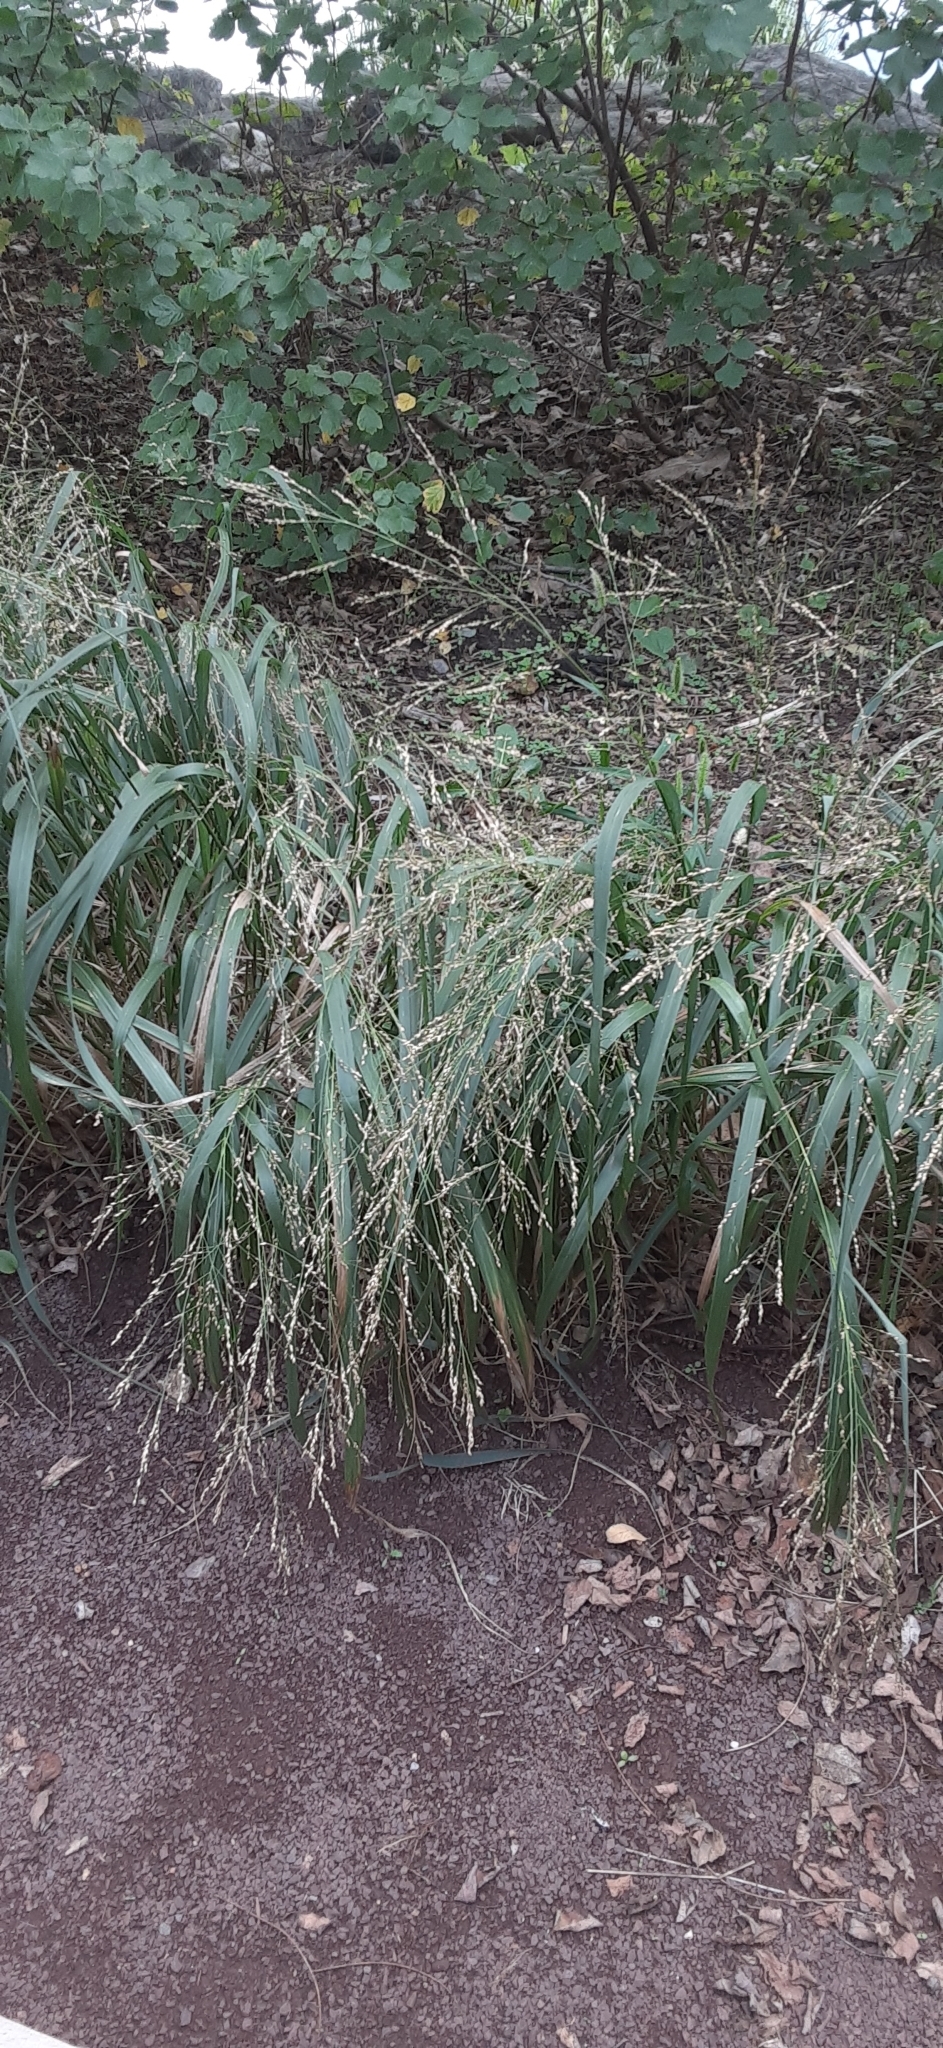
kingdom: Plantae
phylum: Tracheophyta
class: Liliopsida
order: Poales
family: Poaceae
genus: Panicum
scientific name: Panicum virgatum
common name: Switchgrass
